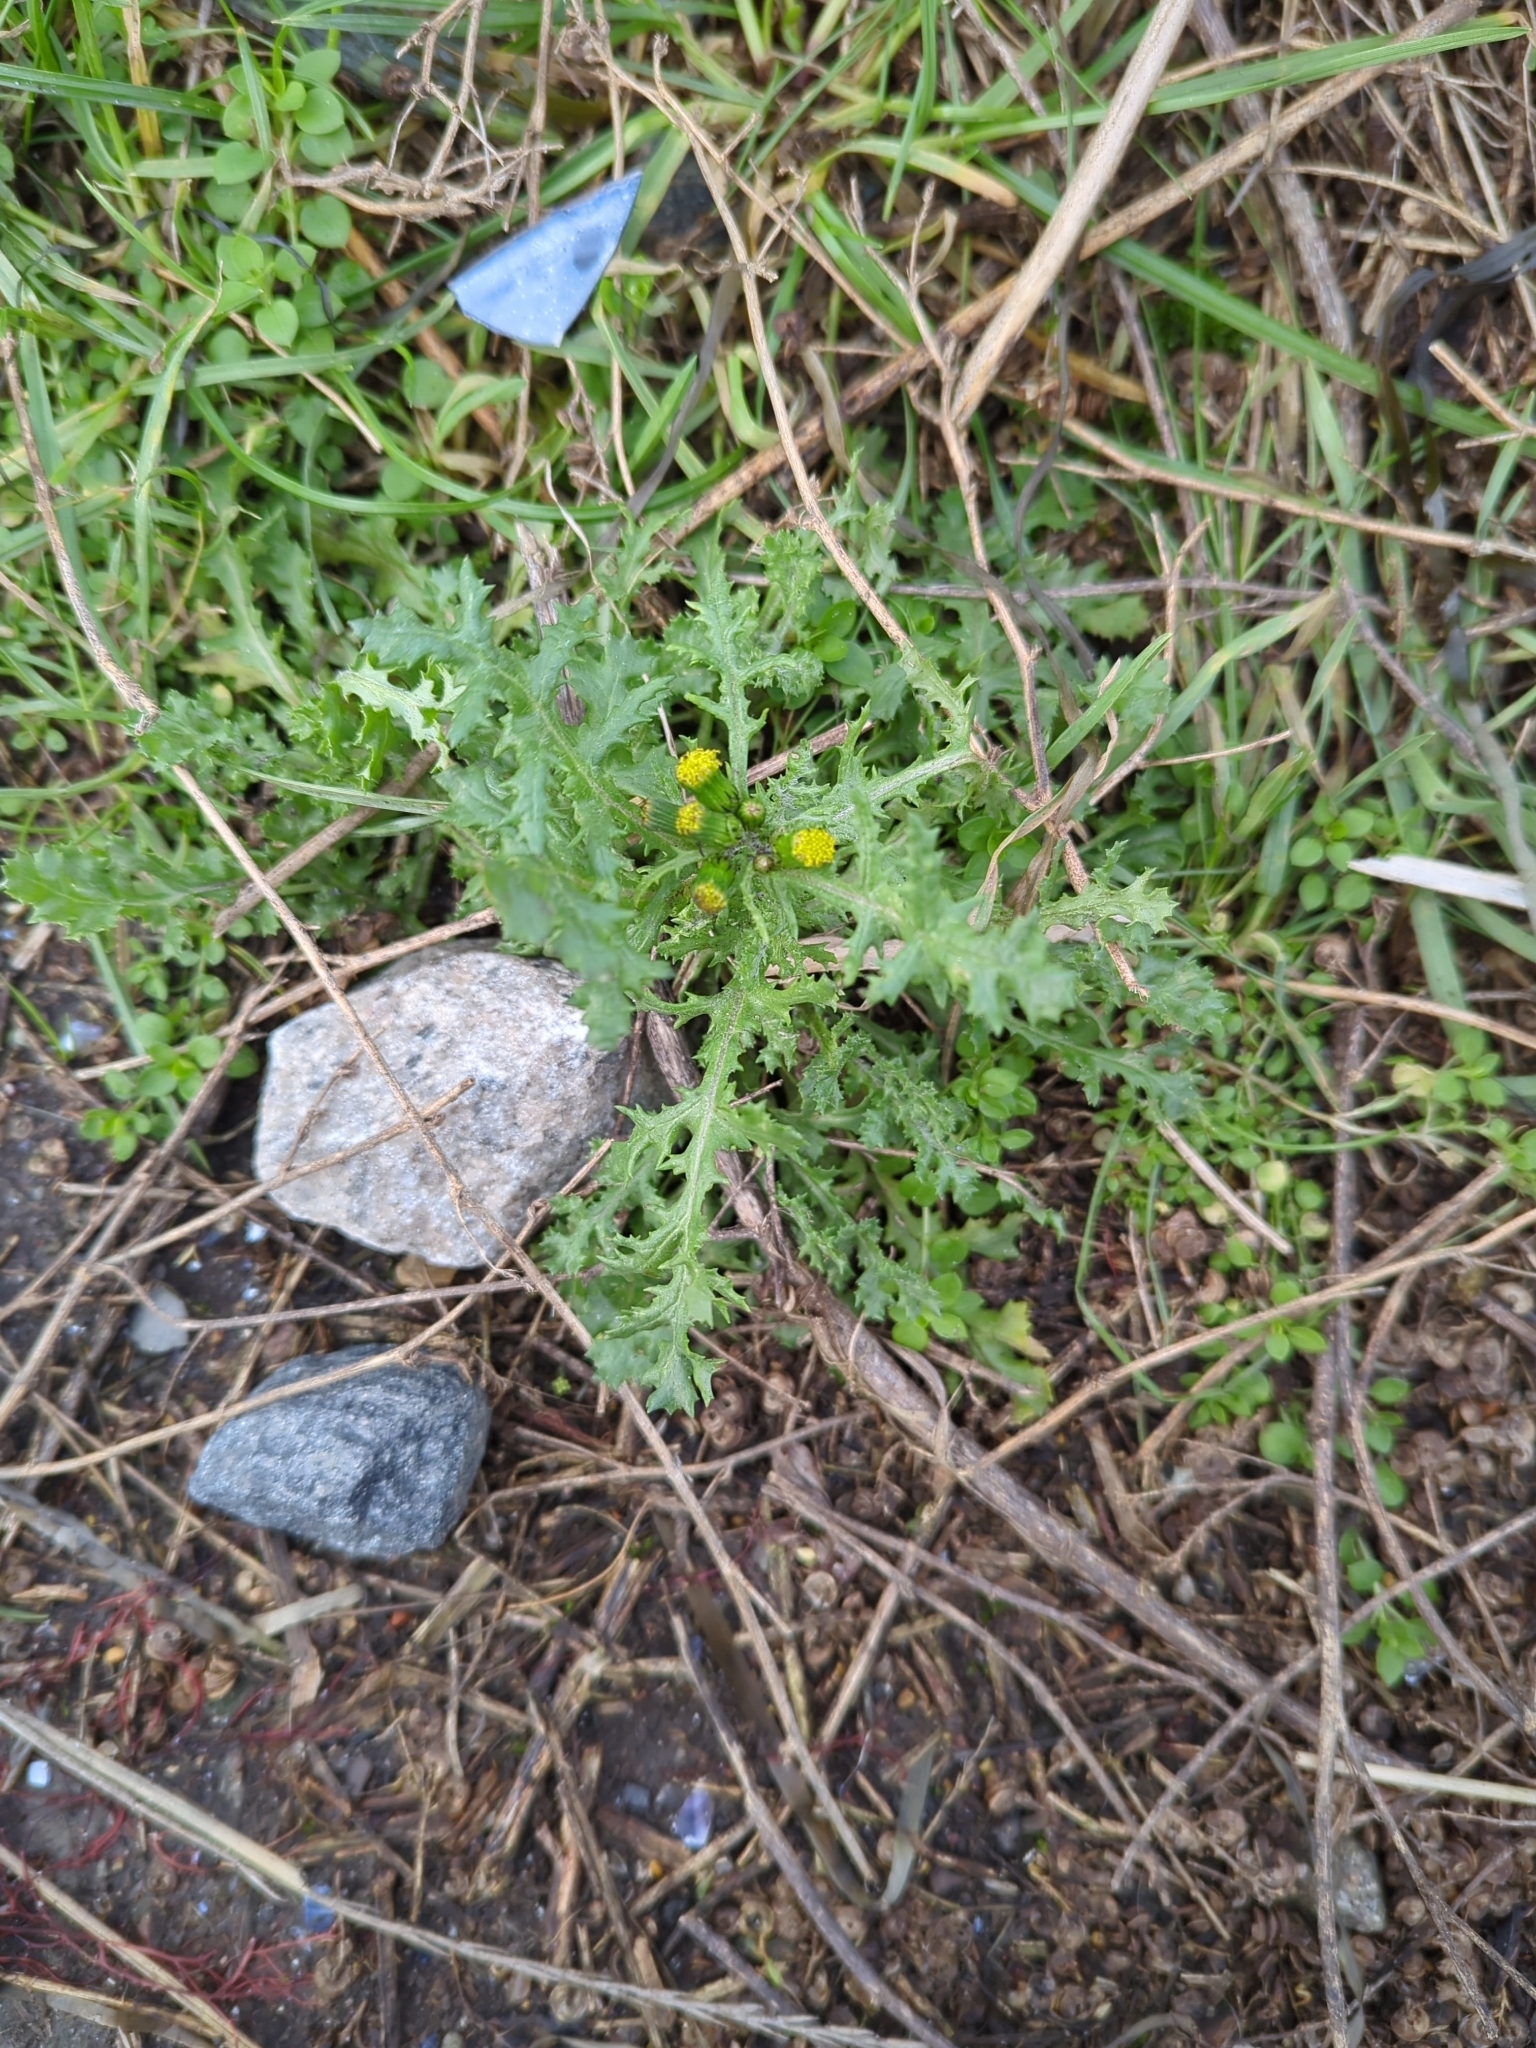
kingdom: Plantae
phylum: Tracheophyta
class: Magnoliopsida
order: Asterales
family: Asteraceae
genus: Senecio
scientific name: Senecio vulgaris
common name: Old-man-in-the-spring
